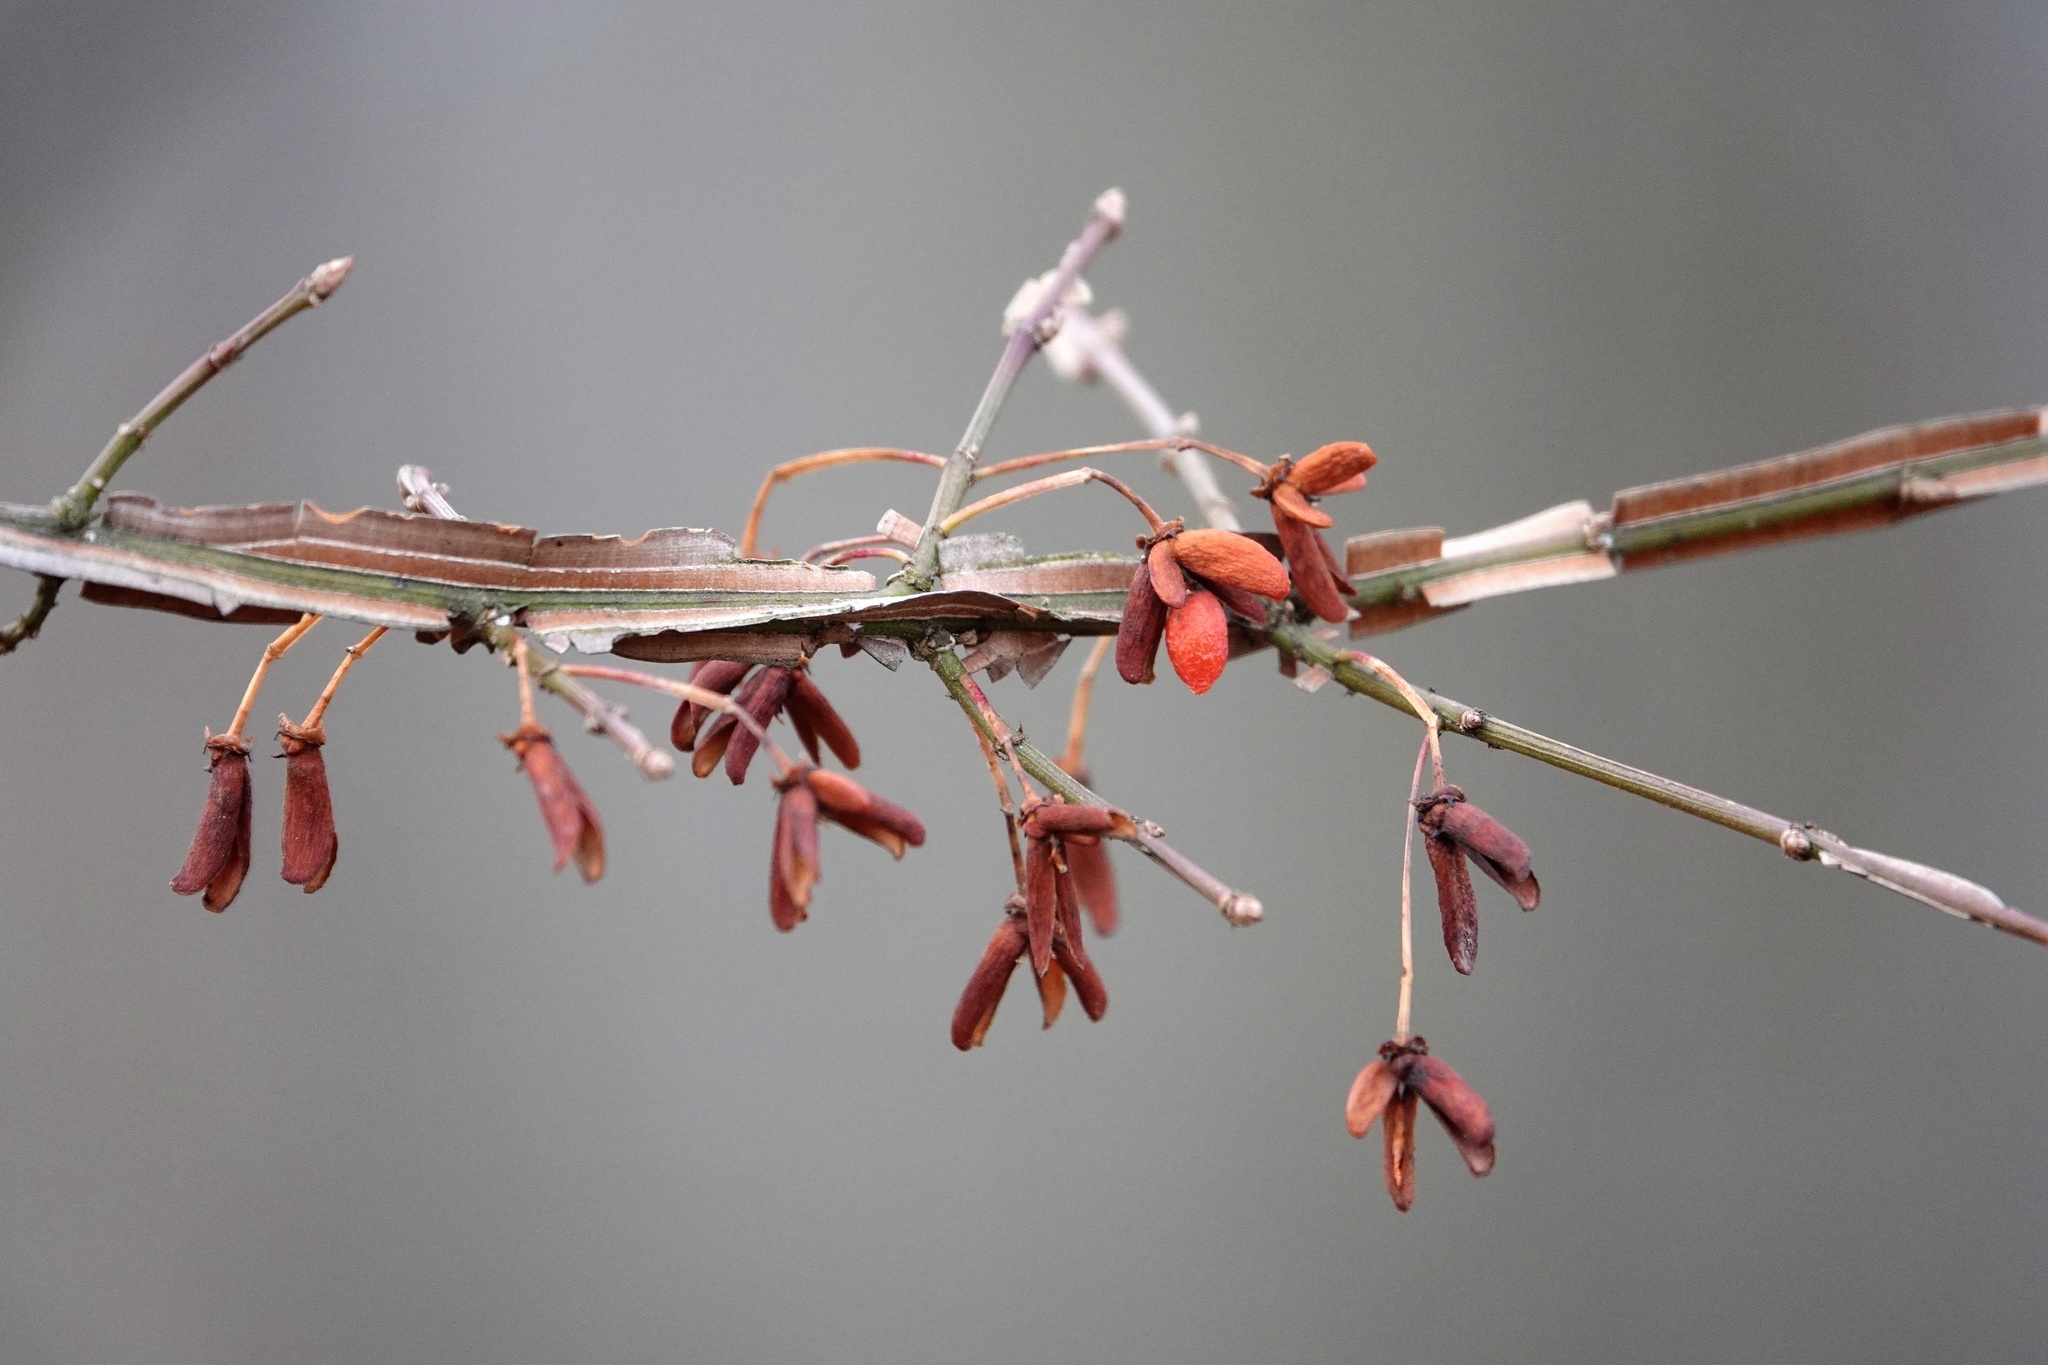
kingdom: Plantae
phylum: Tracheophyta
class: Magnoliopsida
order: Celastrales
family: Celastraceae
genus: Euonymus
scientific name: Euonymus alatus
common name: Winged euonymus
